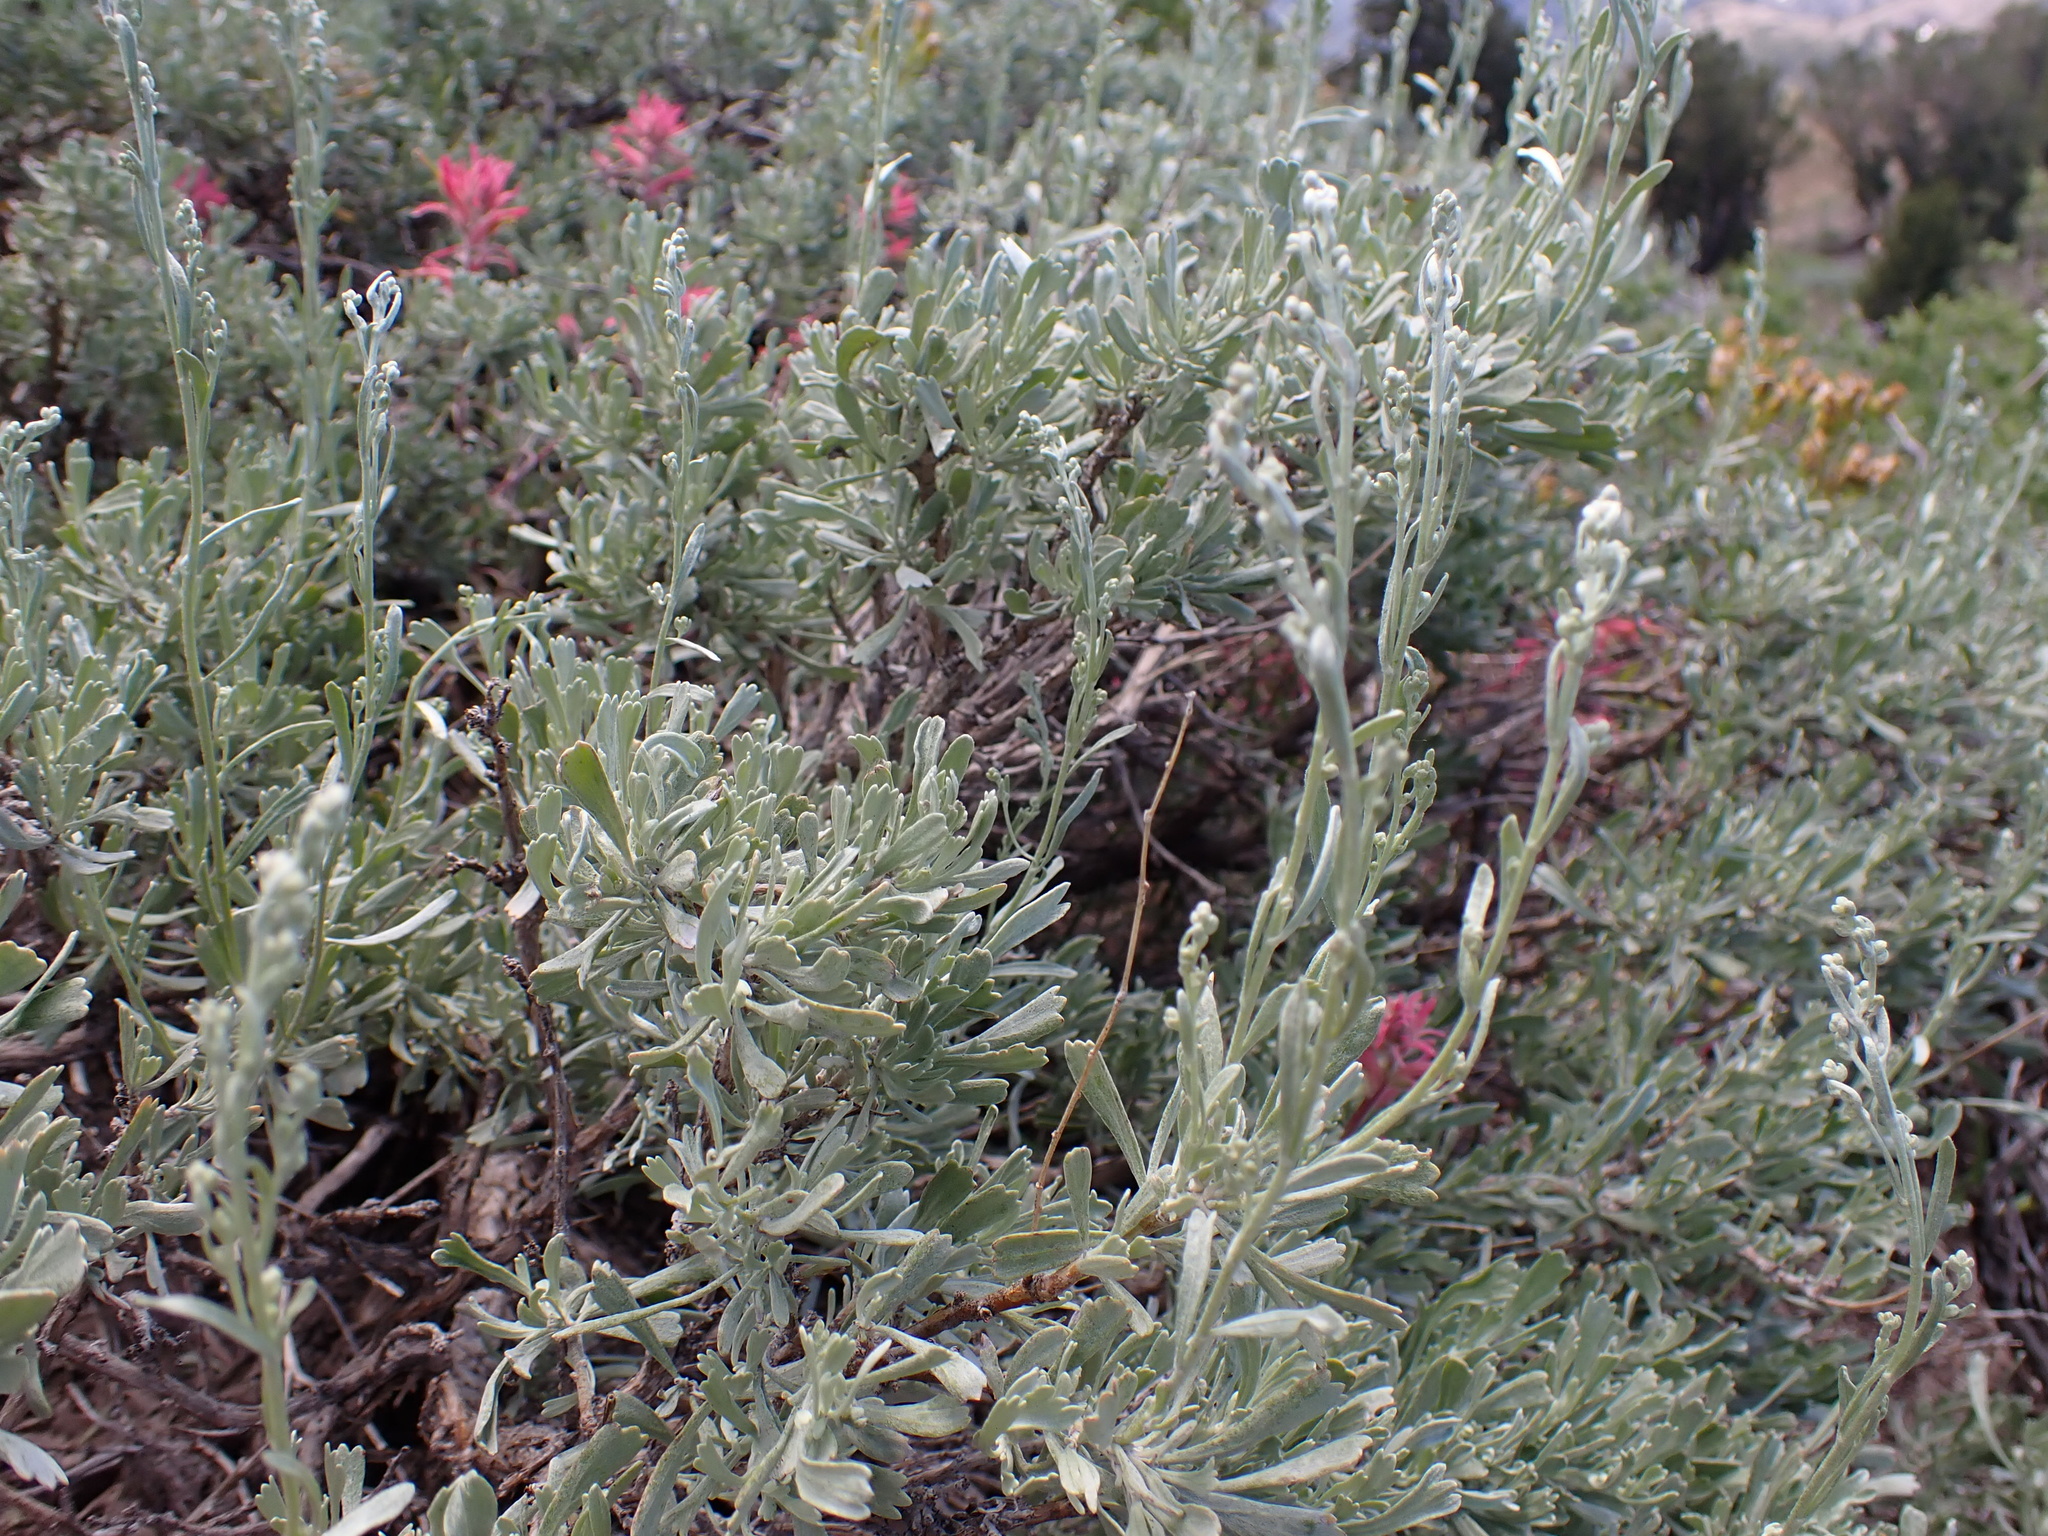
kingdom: Plantae
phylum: Tracheophyta
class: Magnoliopsida
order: Asterales
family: Asteraceae
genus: Artemisia
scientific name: Artemisia tridentata
